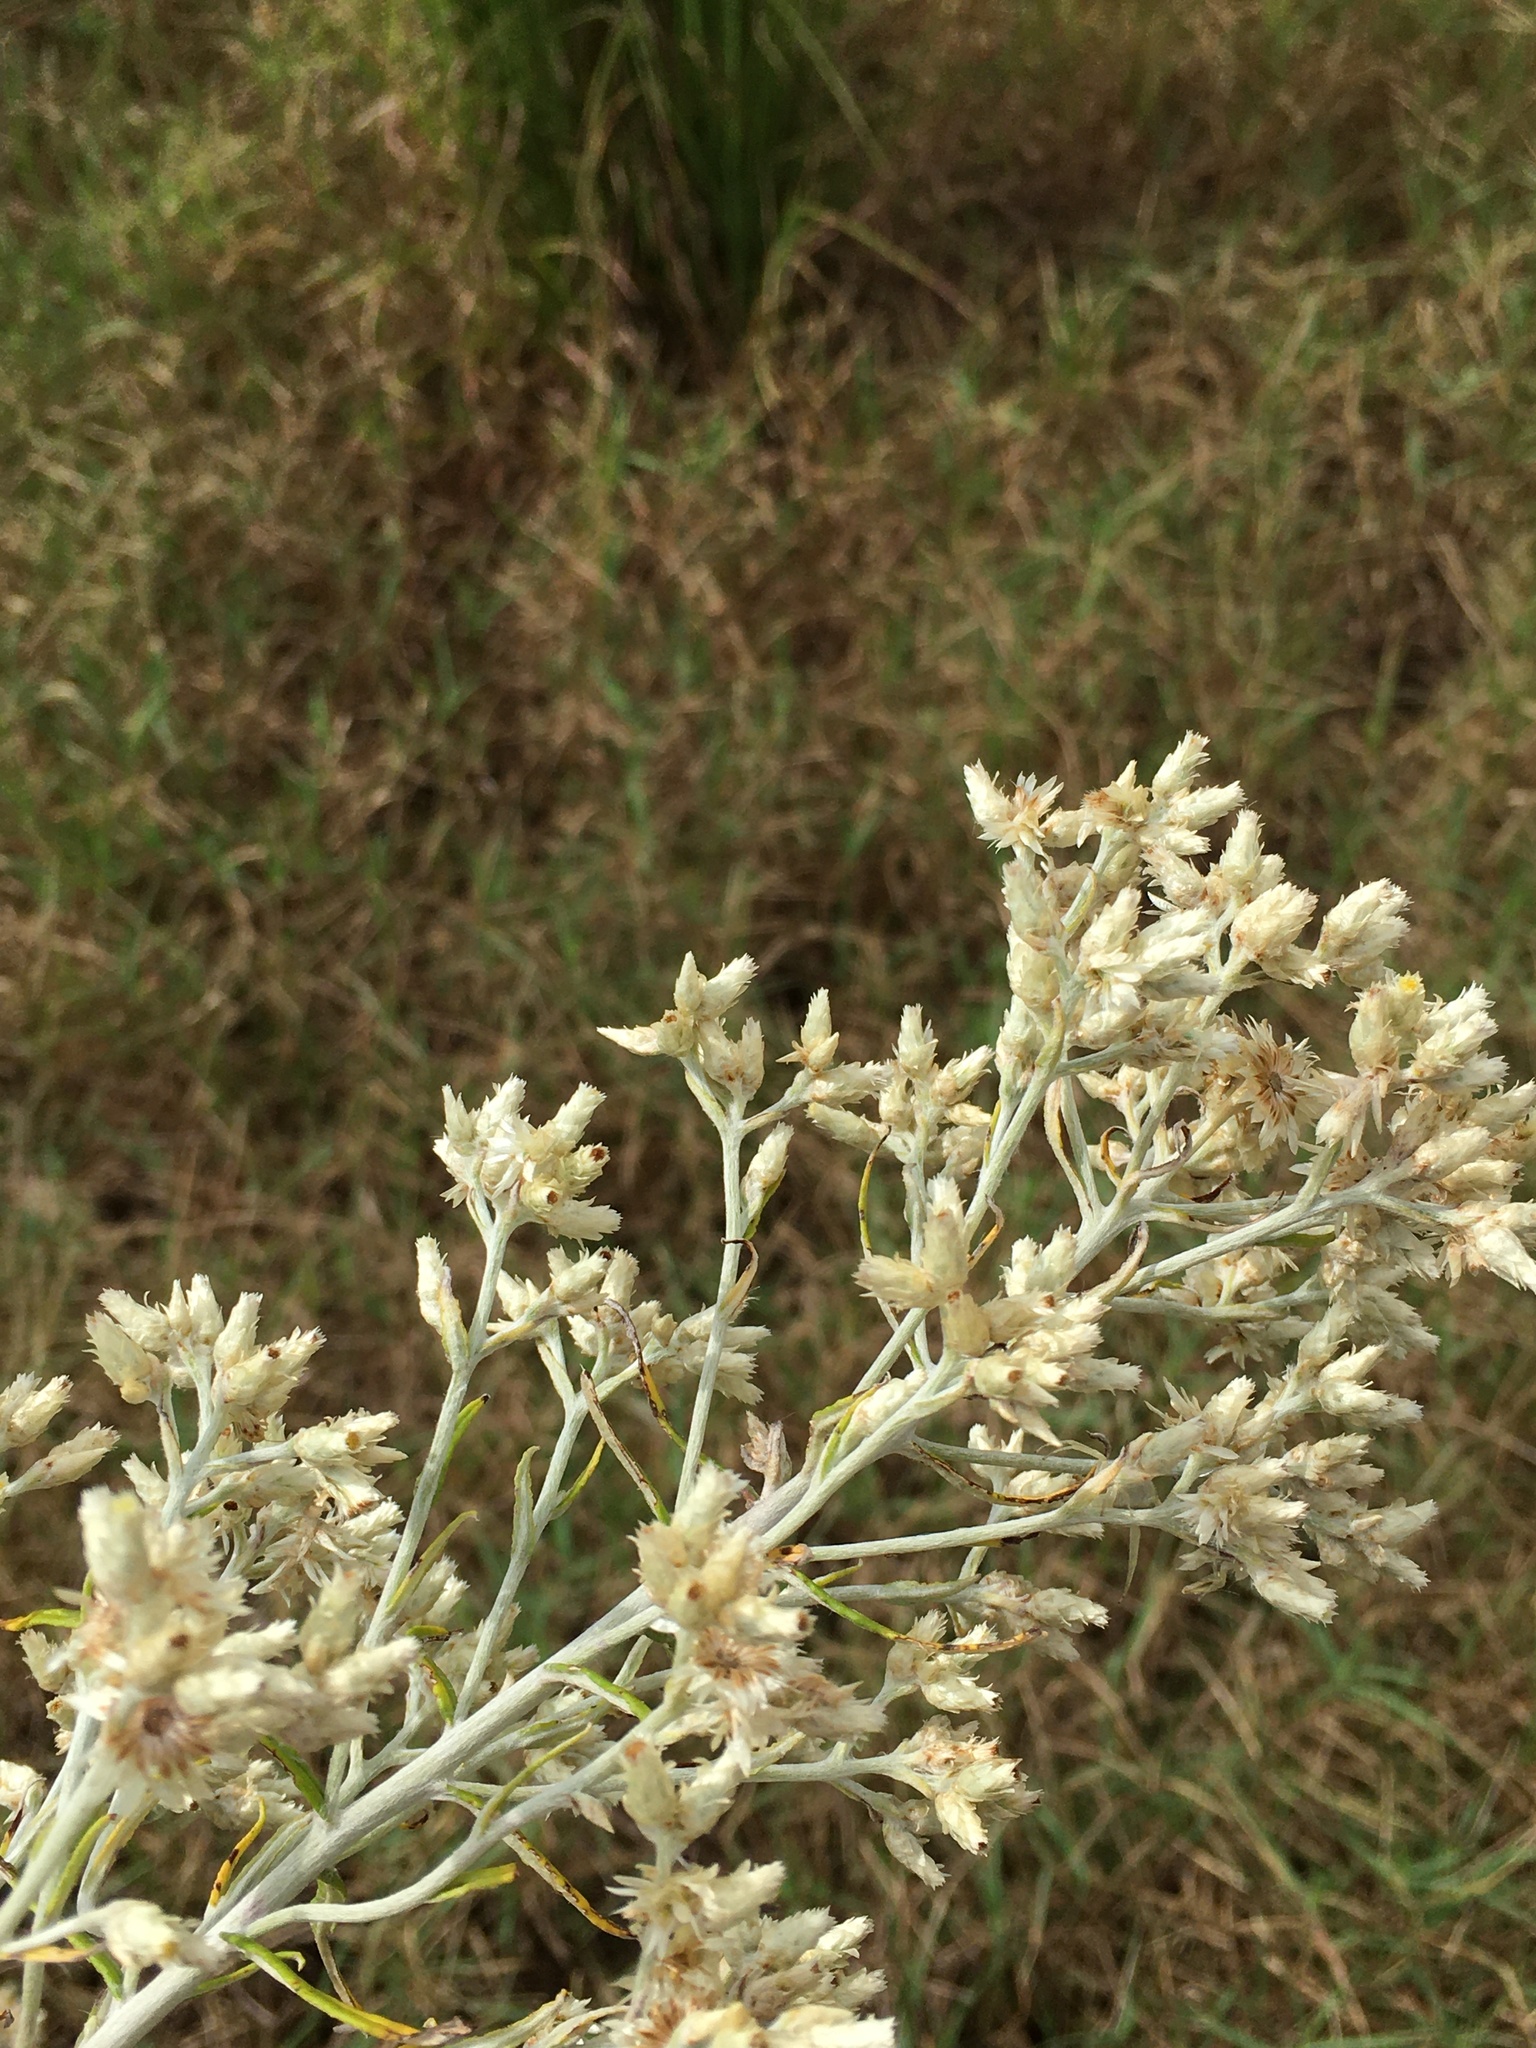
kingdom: Plantae
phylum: Tracheophyta
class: Magnoliopsida
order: Asterales
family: Asteraceae
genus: Pseudognaphalium
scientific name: Pseudognaphalium obtusifolium
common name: Eastern rabbit-tobacco
